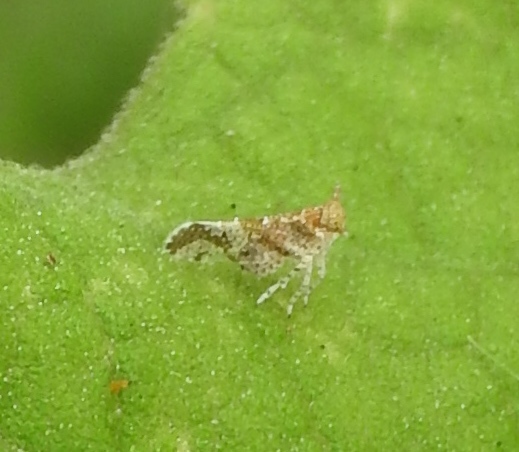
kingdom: Animalia
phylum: Arthropoda
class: Insecta
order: Hemiptera
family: Delphacidae
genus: Stobaera
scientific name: Stobaera
